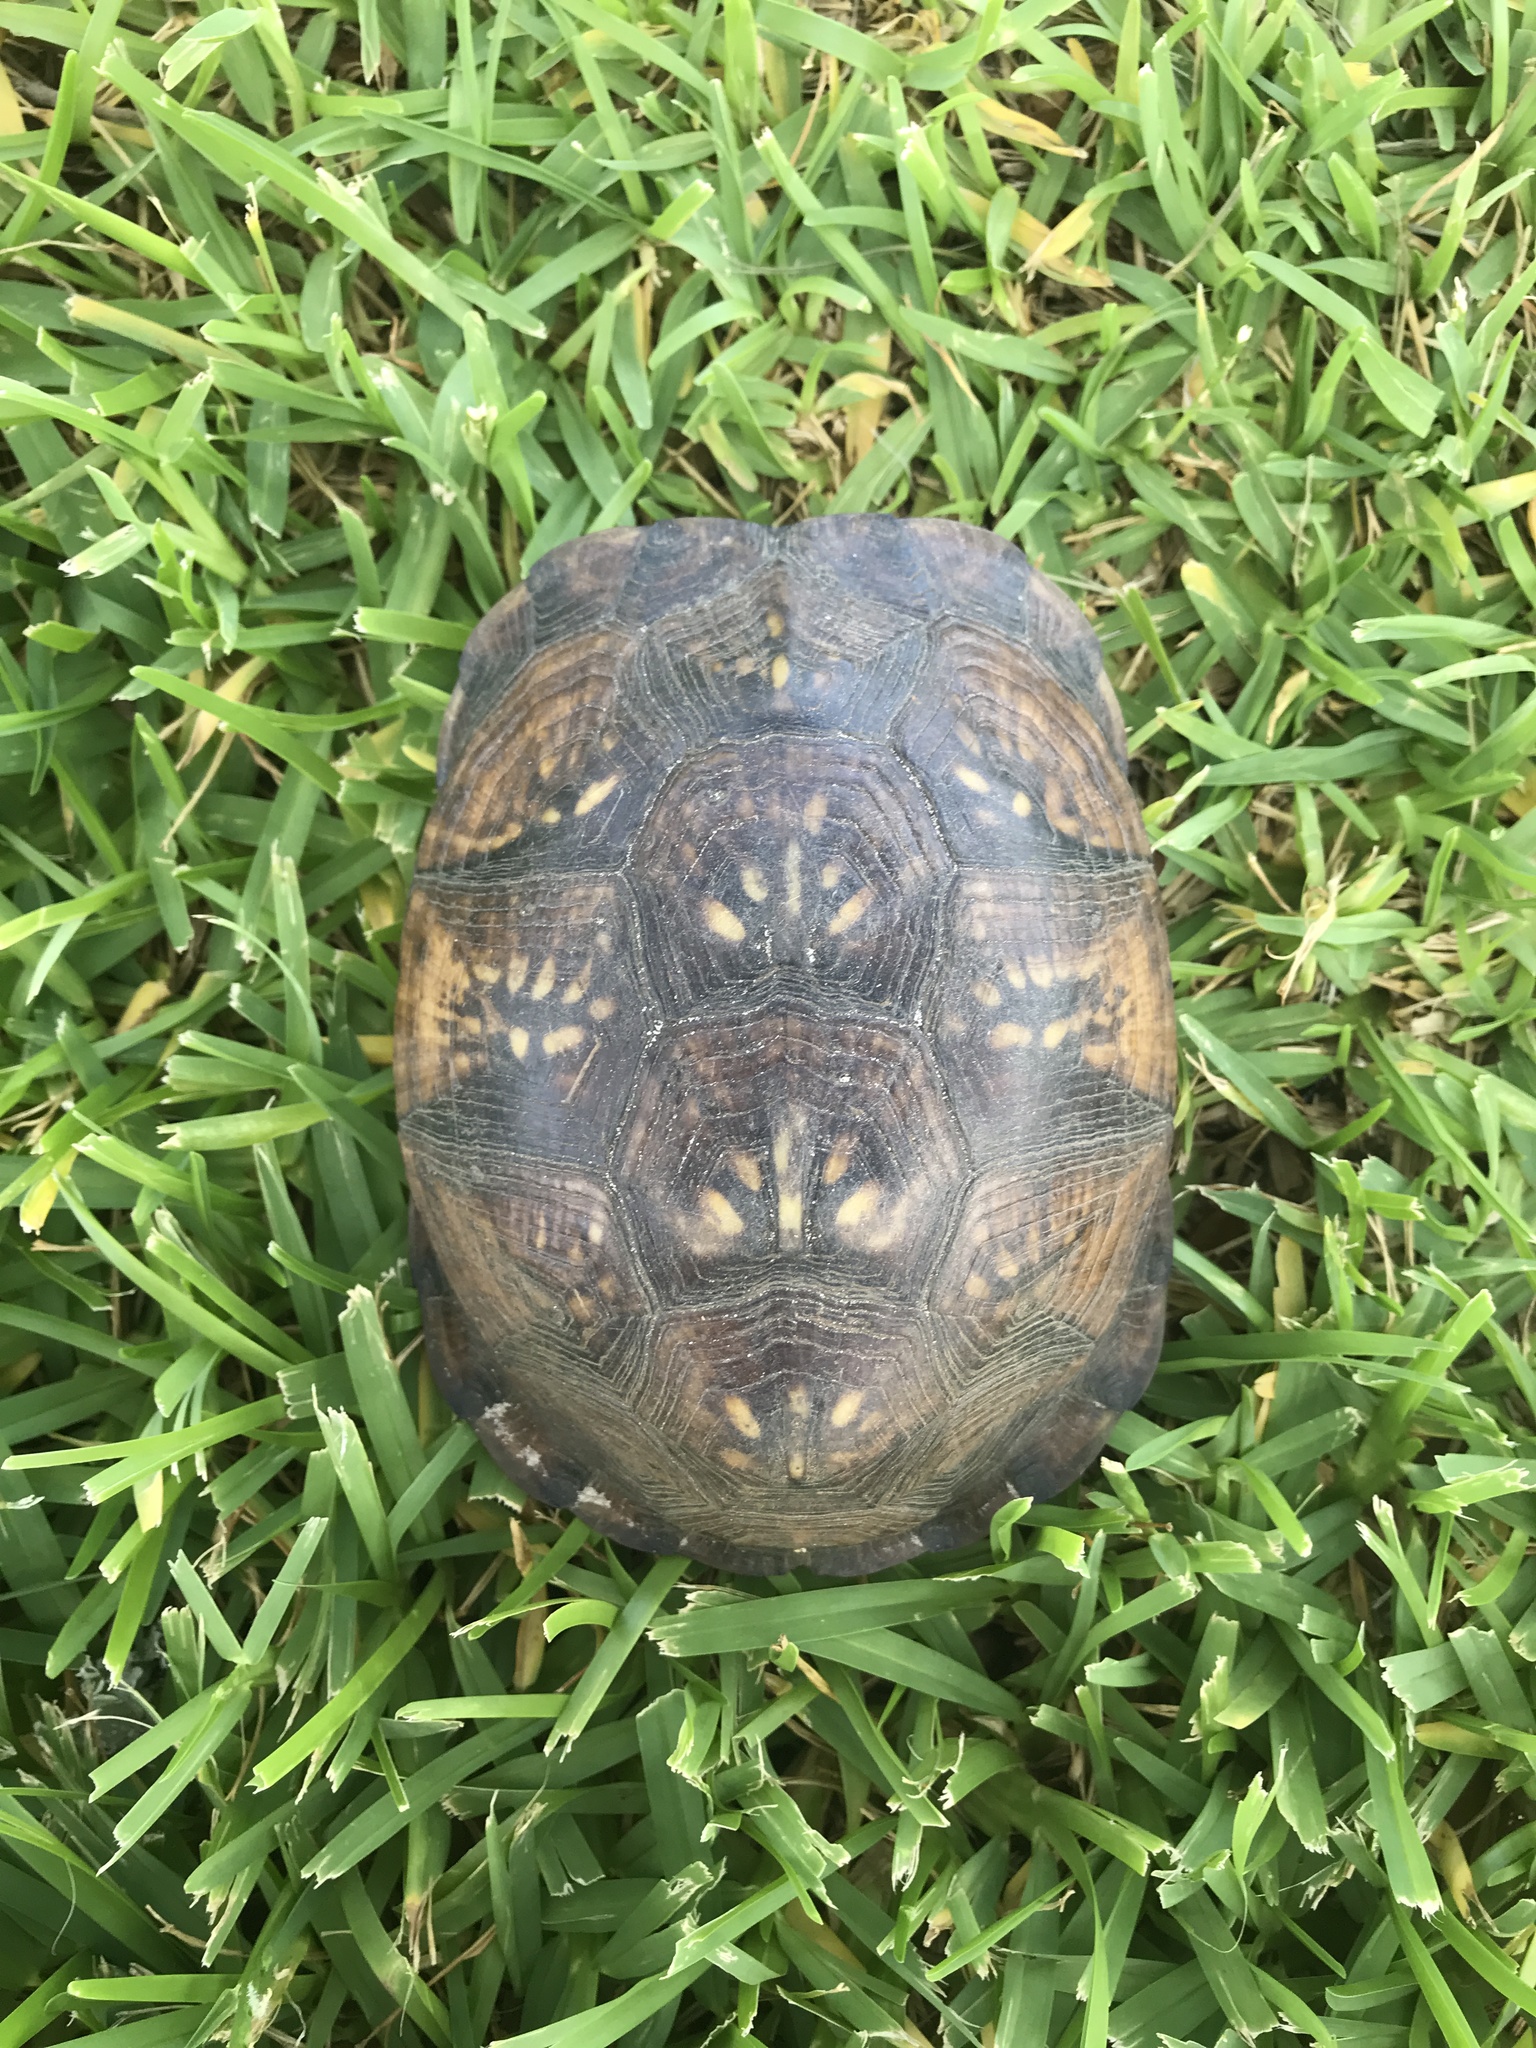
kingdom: Animalia
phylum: Chordata
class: Testudines
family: Emydidae
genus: Terrapene
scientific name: Terrapene carolina
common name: Common box turtle
